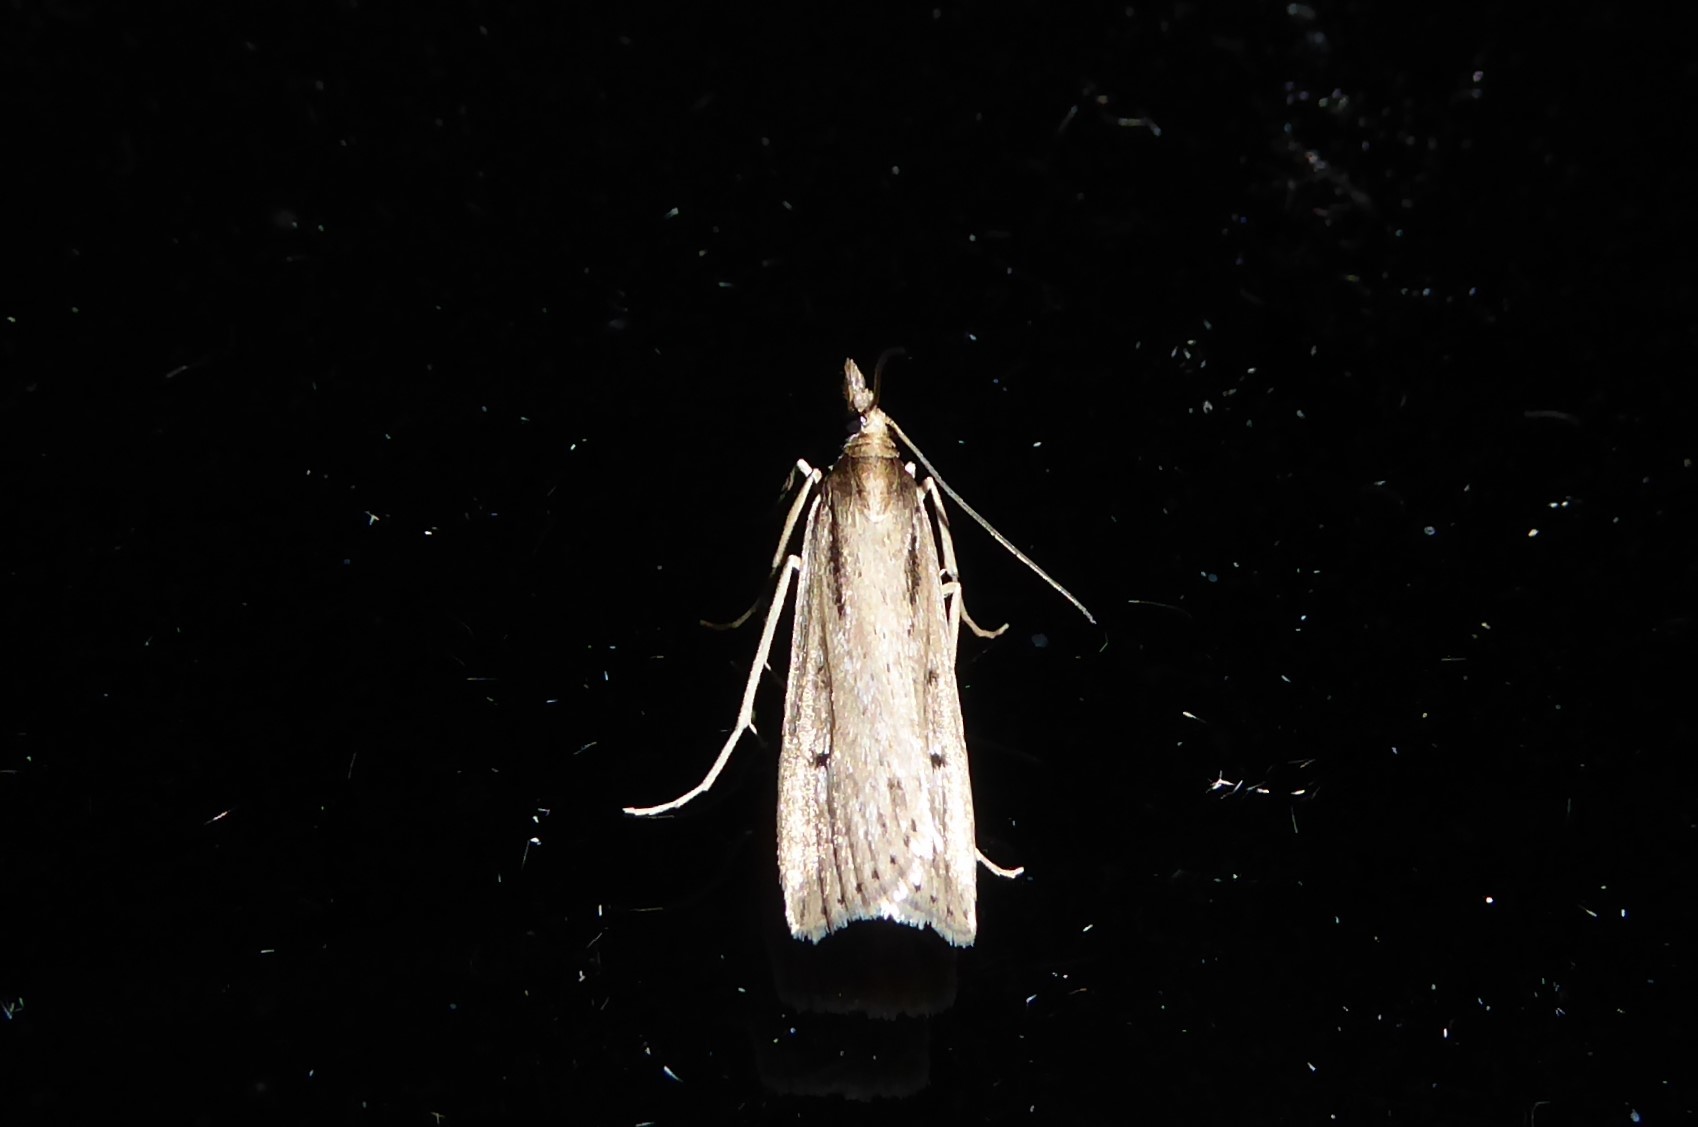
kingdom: Animalia
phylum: Arthropoda
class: Insecta
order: Lepidoptera
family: Crambidae
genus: Eudonia
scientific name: Eudonia sabulosella
